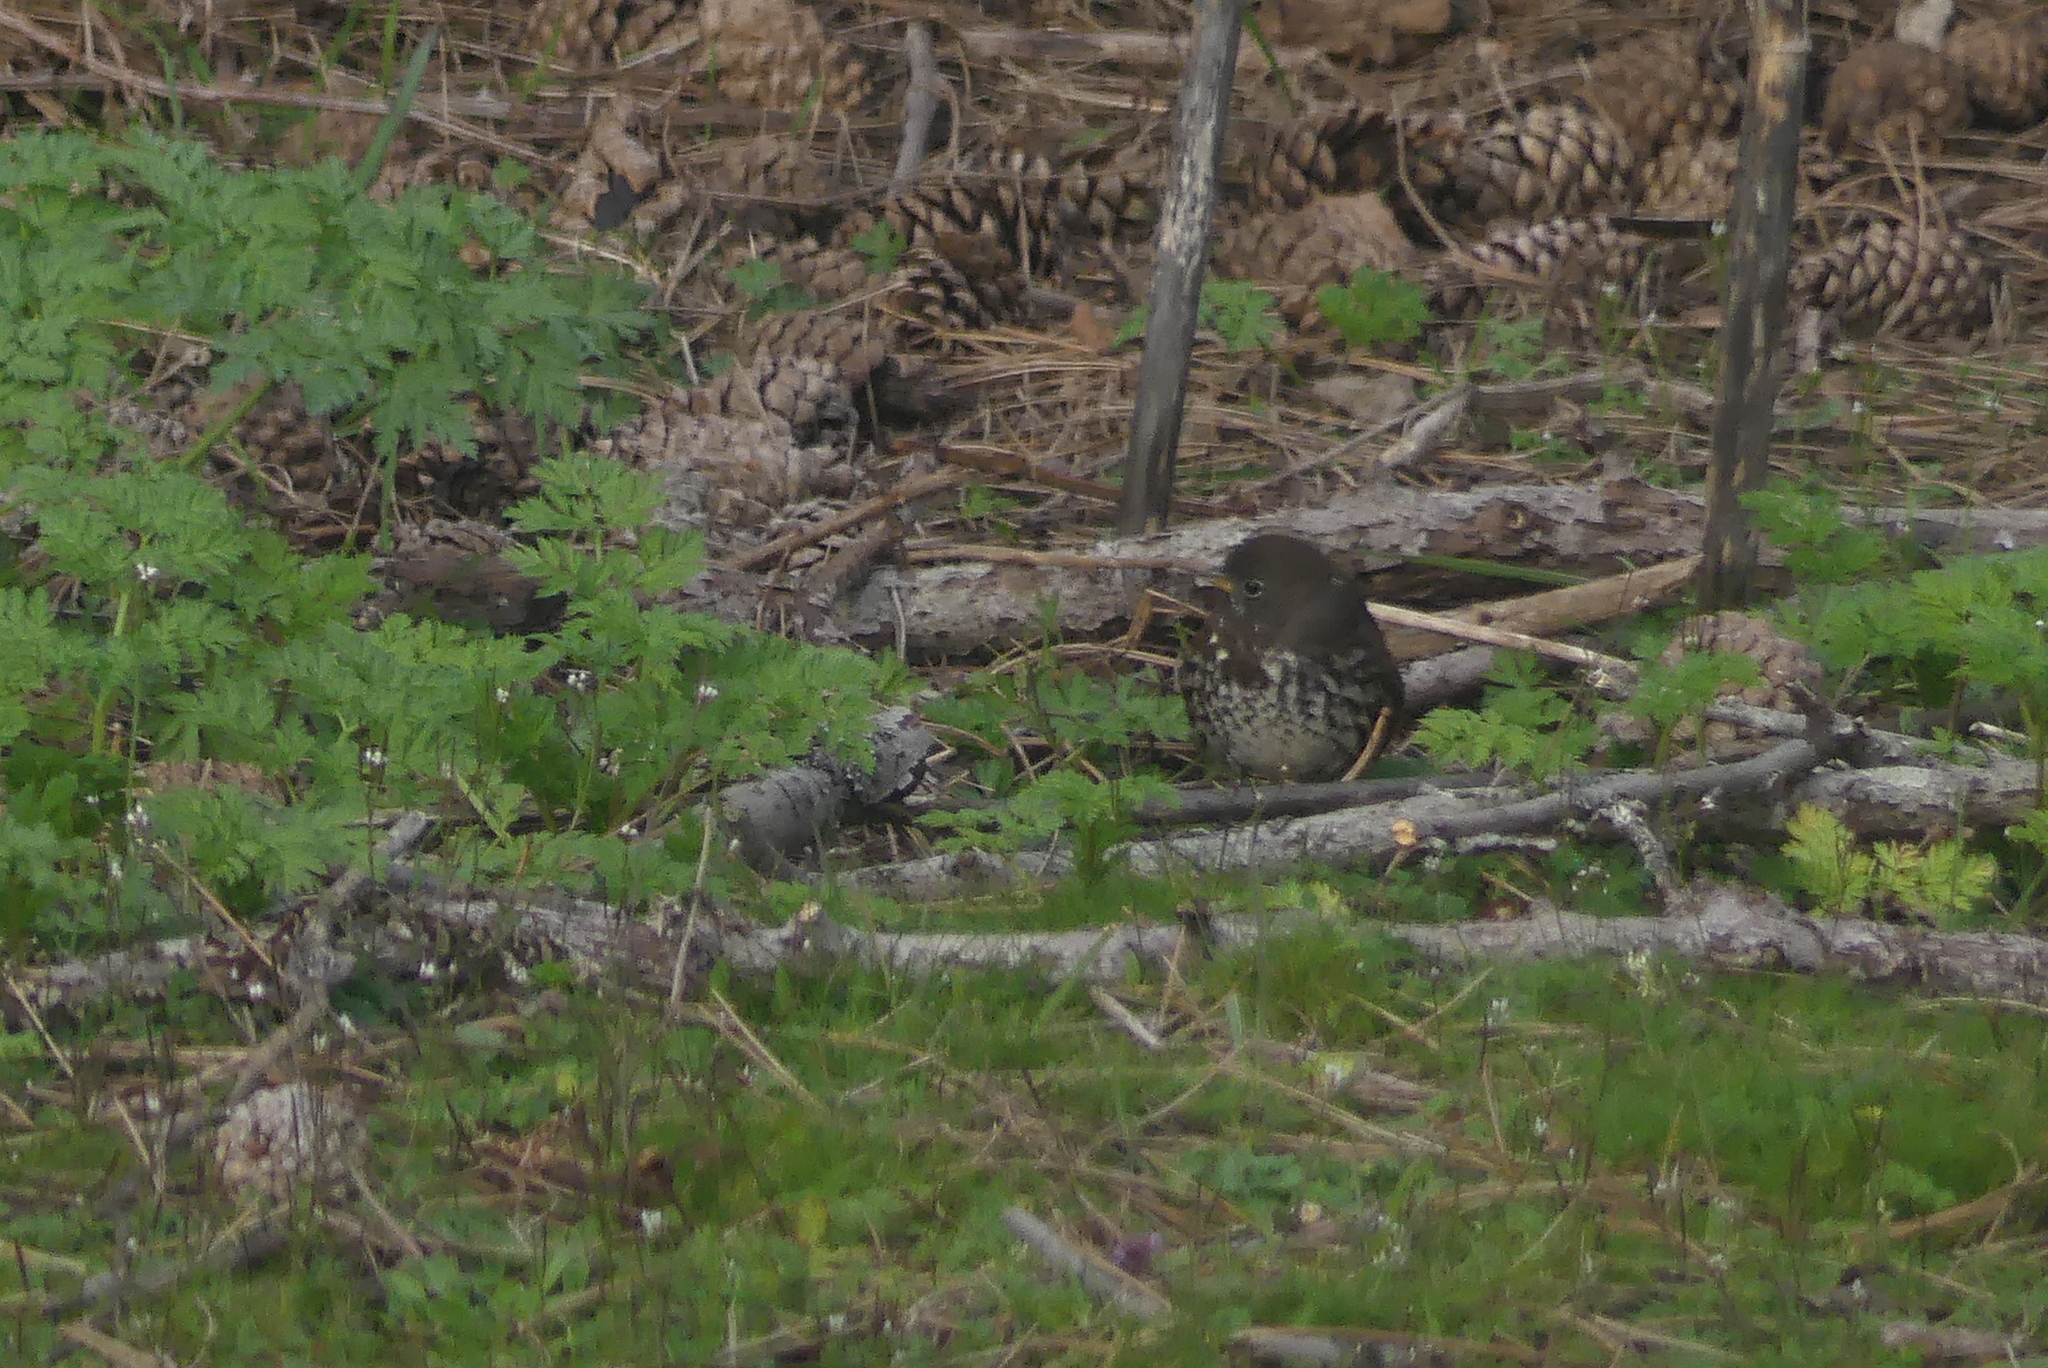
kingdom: Animalia
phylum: Chordata
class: Aves
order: Passeriformes
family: Passerellidae
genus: Passerella
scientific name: Passerella iliaca
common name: Fox sparrow
